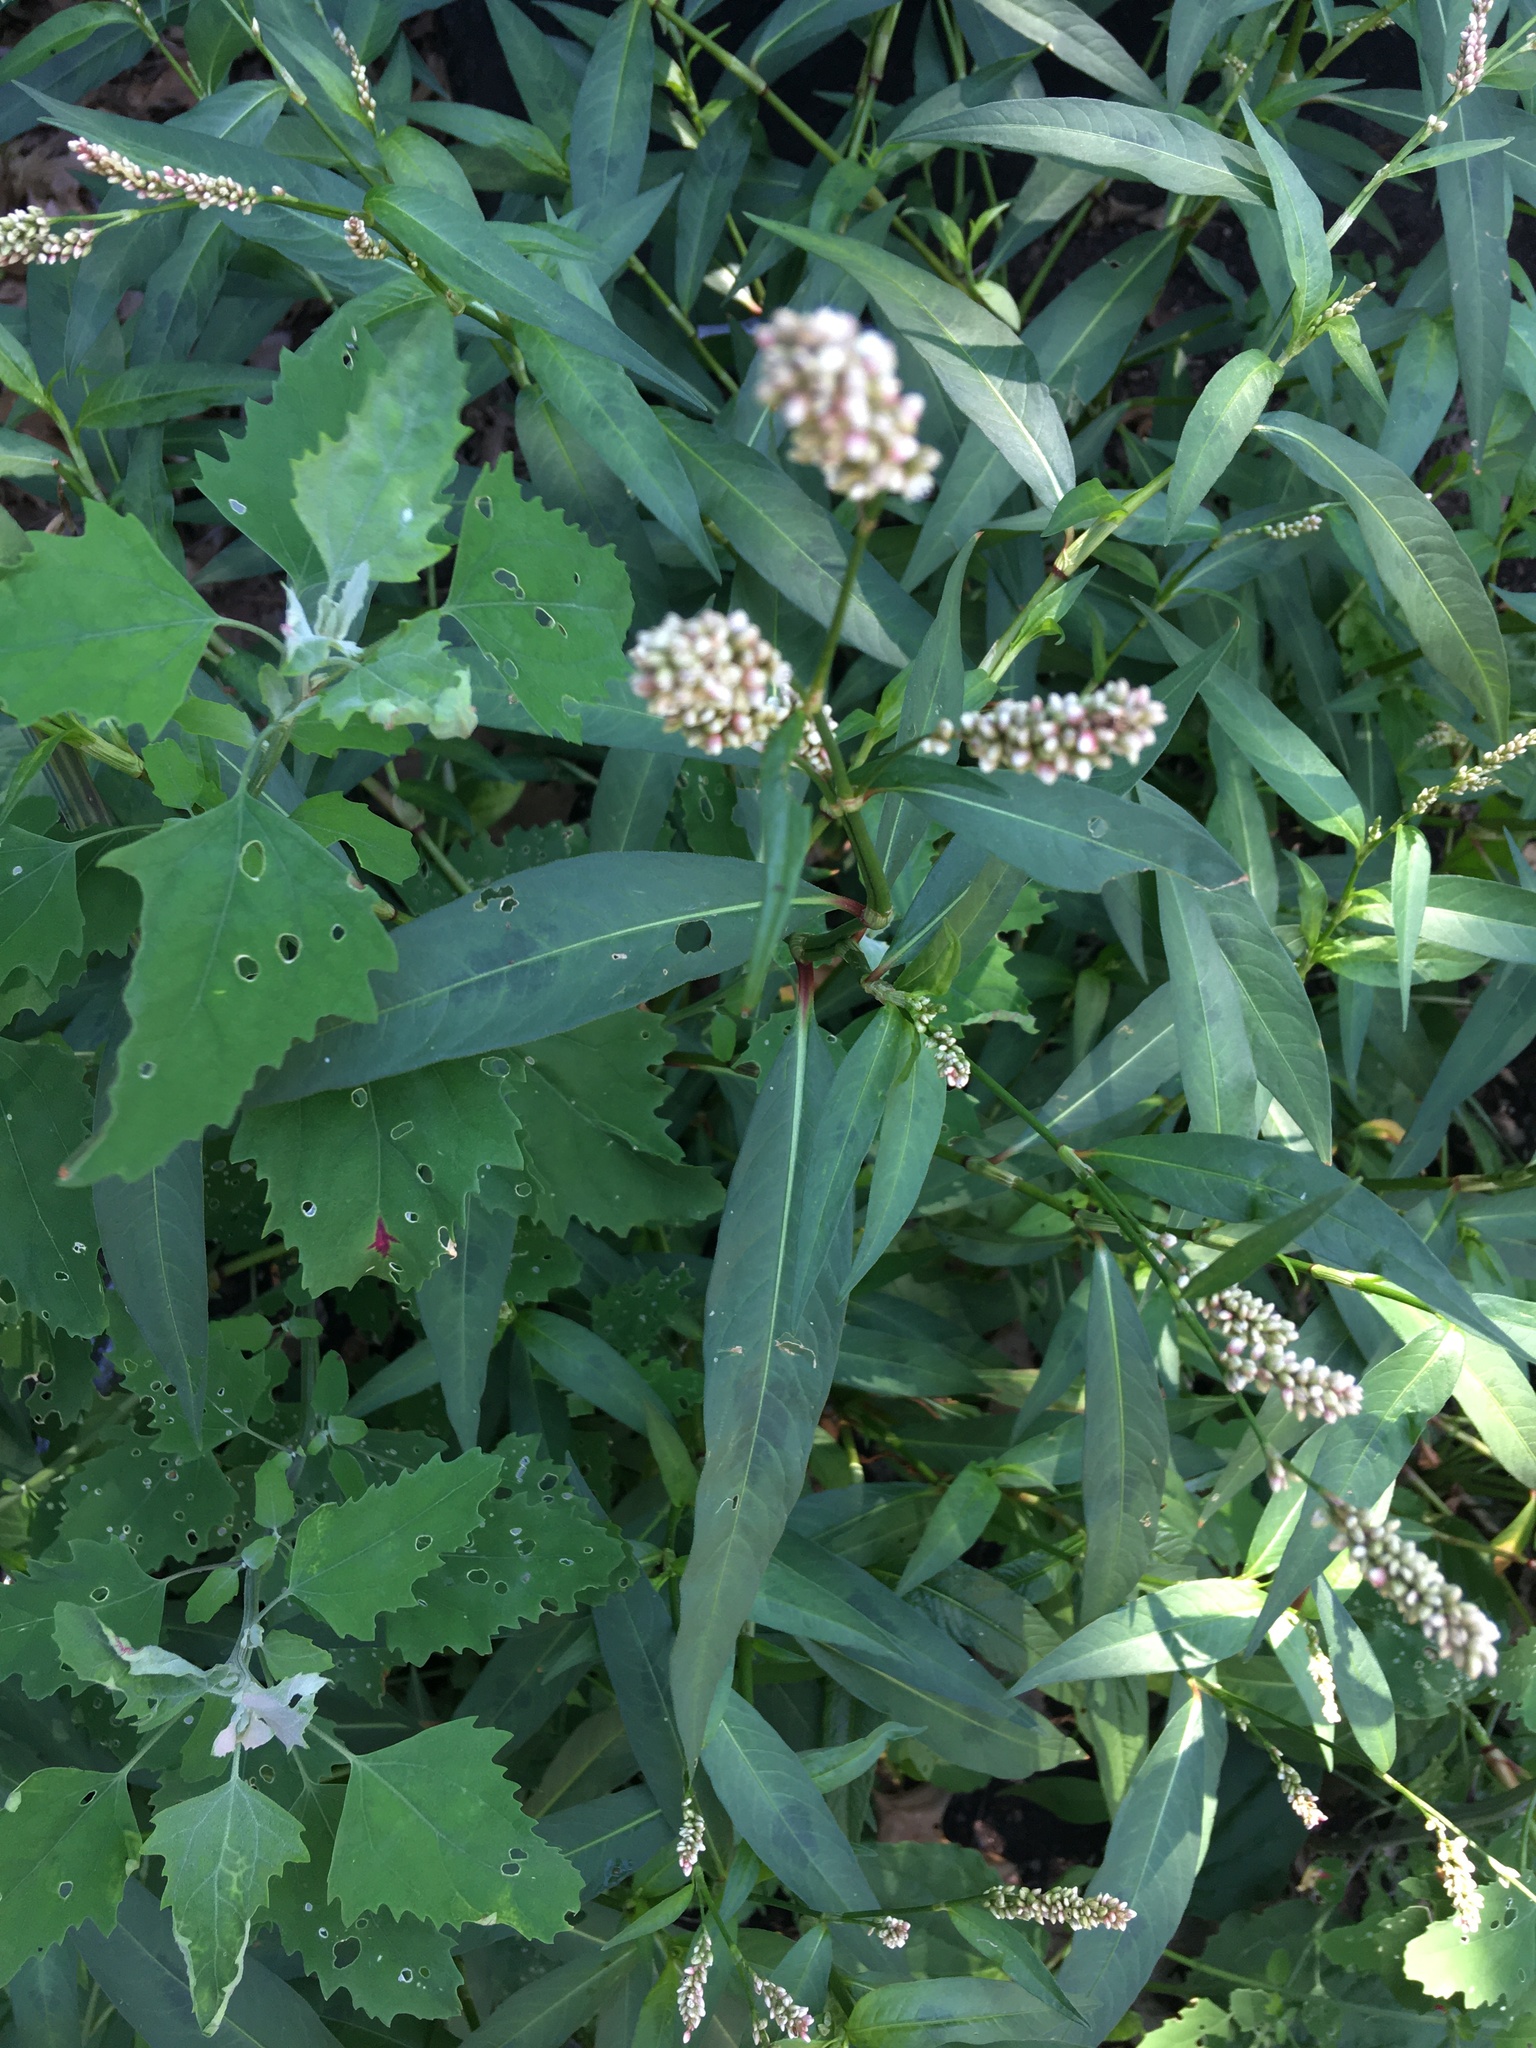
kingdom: Plantae
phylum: Tracheophyta
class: Magnoliopsida
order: Caryophyllales
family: Polygonaceae
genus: Persicaria
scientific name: Persicaria maculosa
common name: Redshank
